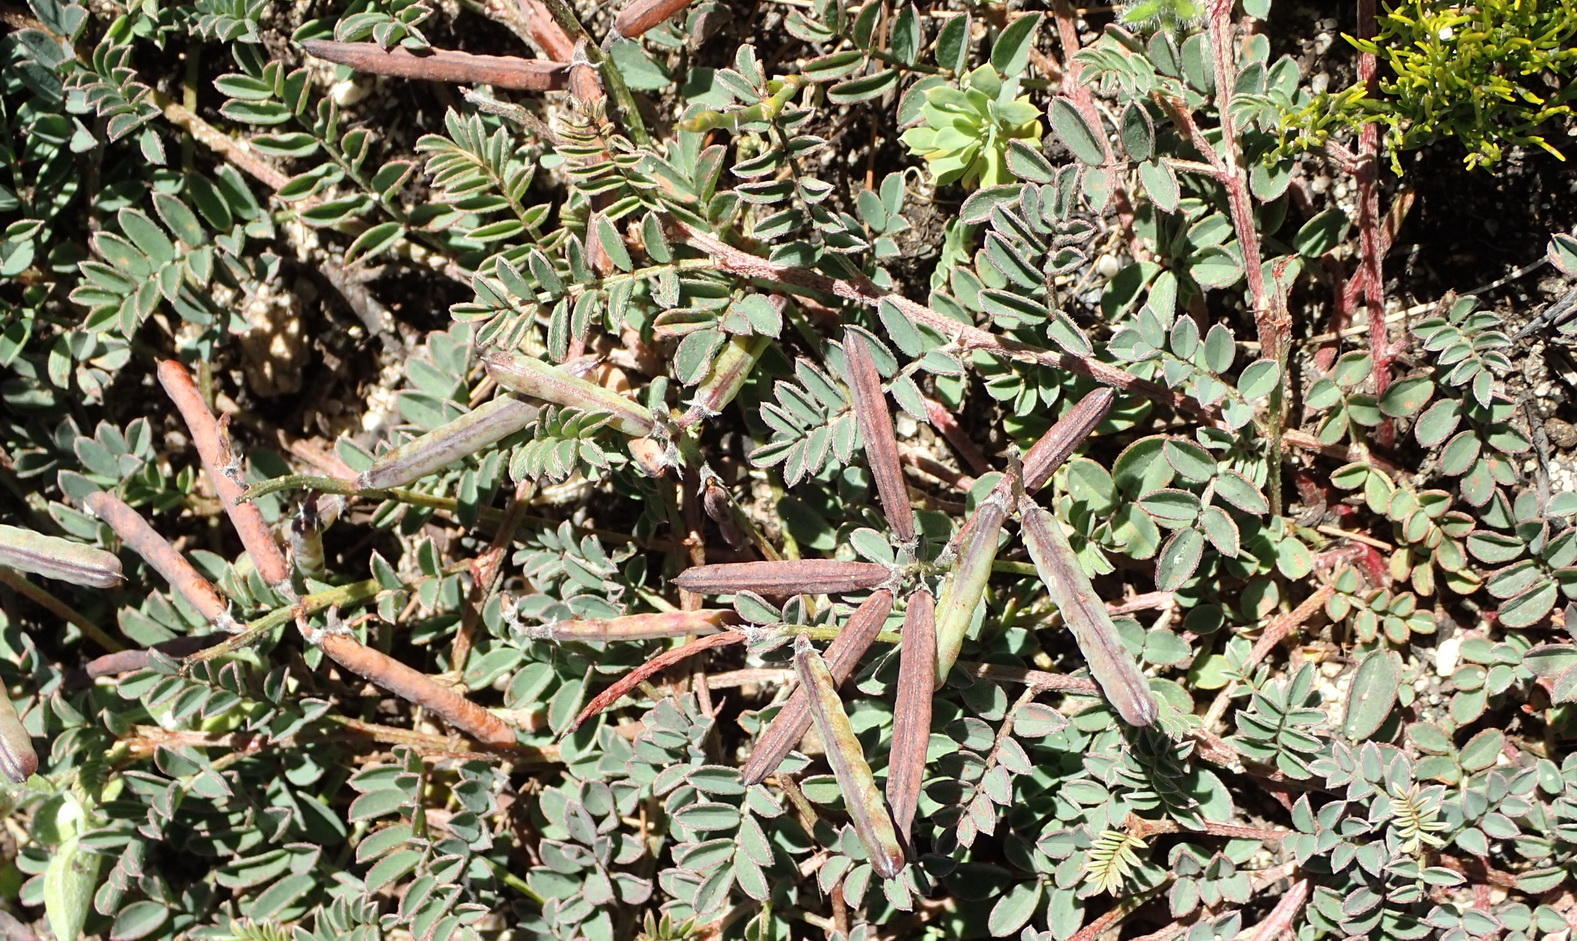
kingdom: Plantae
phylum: Tracheophyta
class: Magnoliopsida
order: Fabales
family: Fabaceae
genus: Indigofera
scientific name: Indigofera declinata
